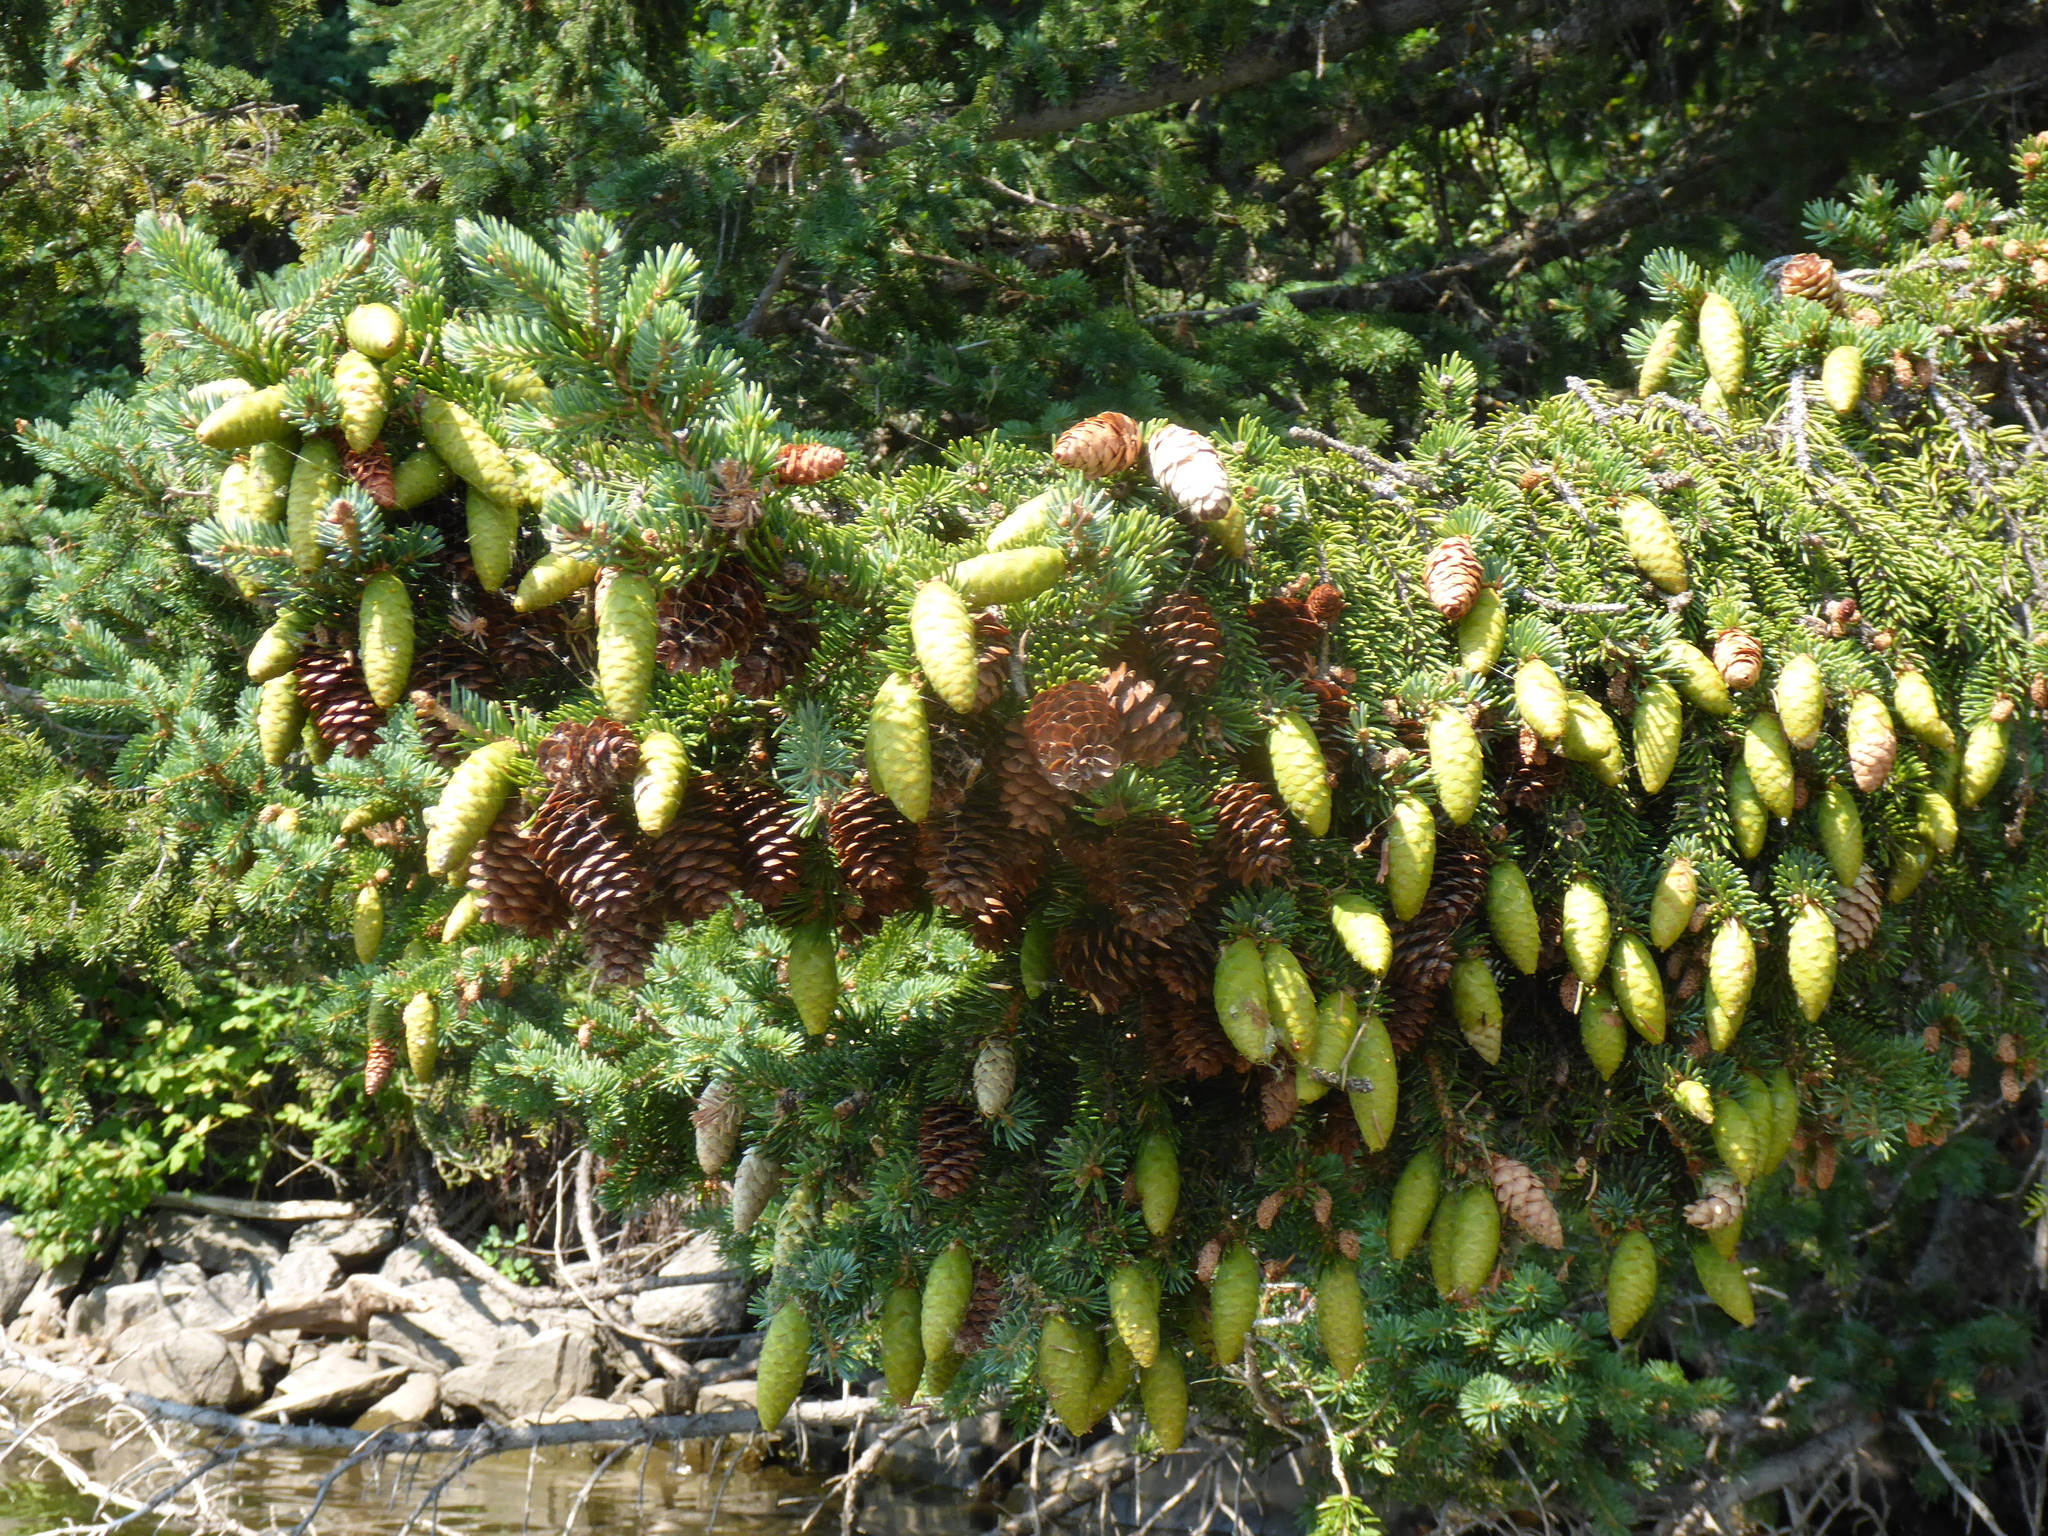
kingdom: Plantae
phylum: Tracheophyta
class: Pinopsida
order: Pinales
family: Pinaceae
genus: Picea
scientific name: Picea glauca
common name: White spruce
